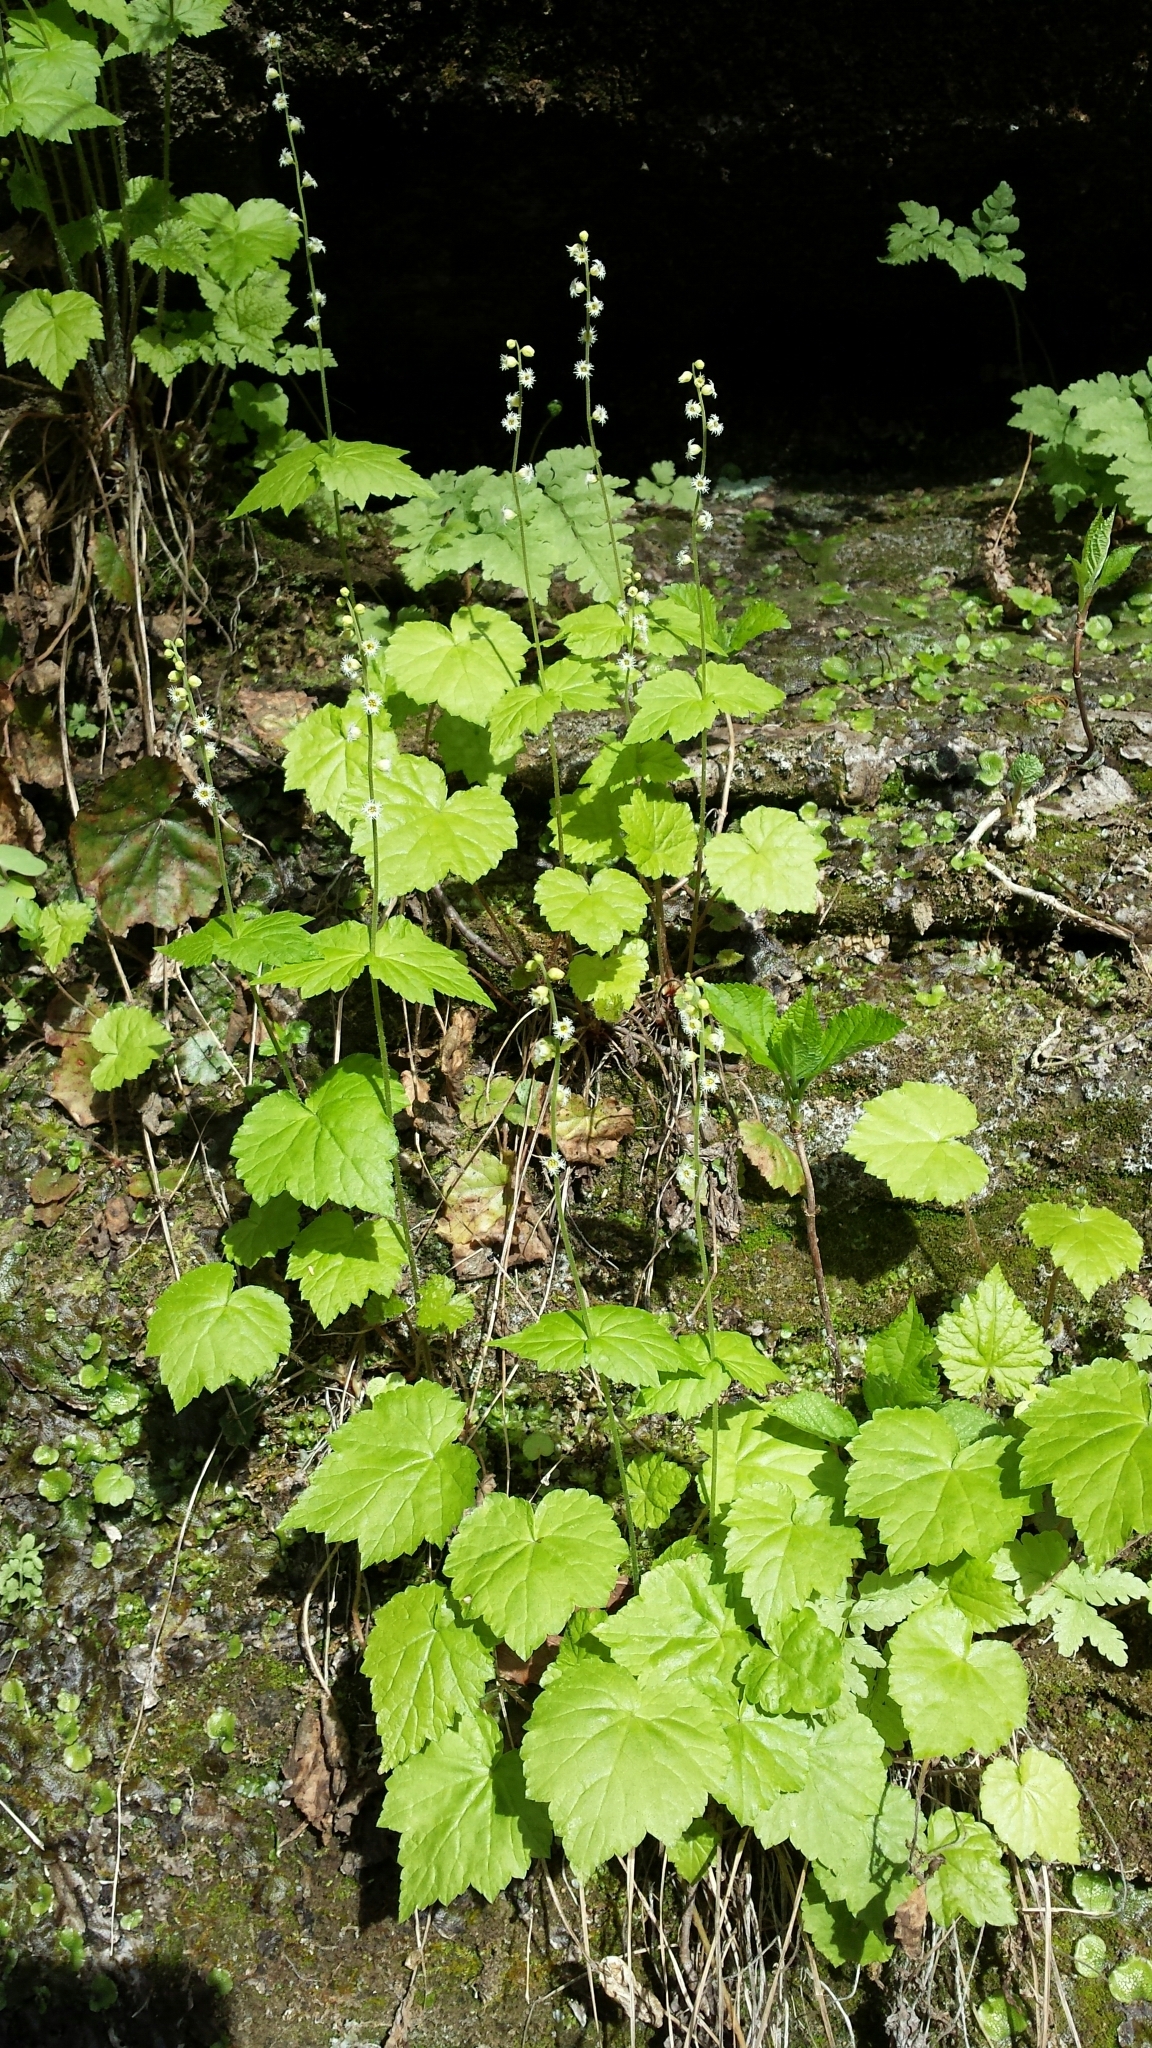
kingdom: Plantae
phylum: Tracheophyta
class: Magnoliopsida
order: Saxifragales
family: Saxifragaceae
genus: Mitella
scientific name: Mitella diphylla
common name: Coolwort
